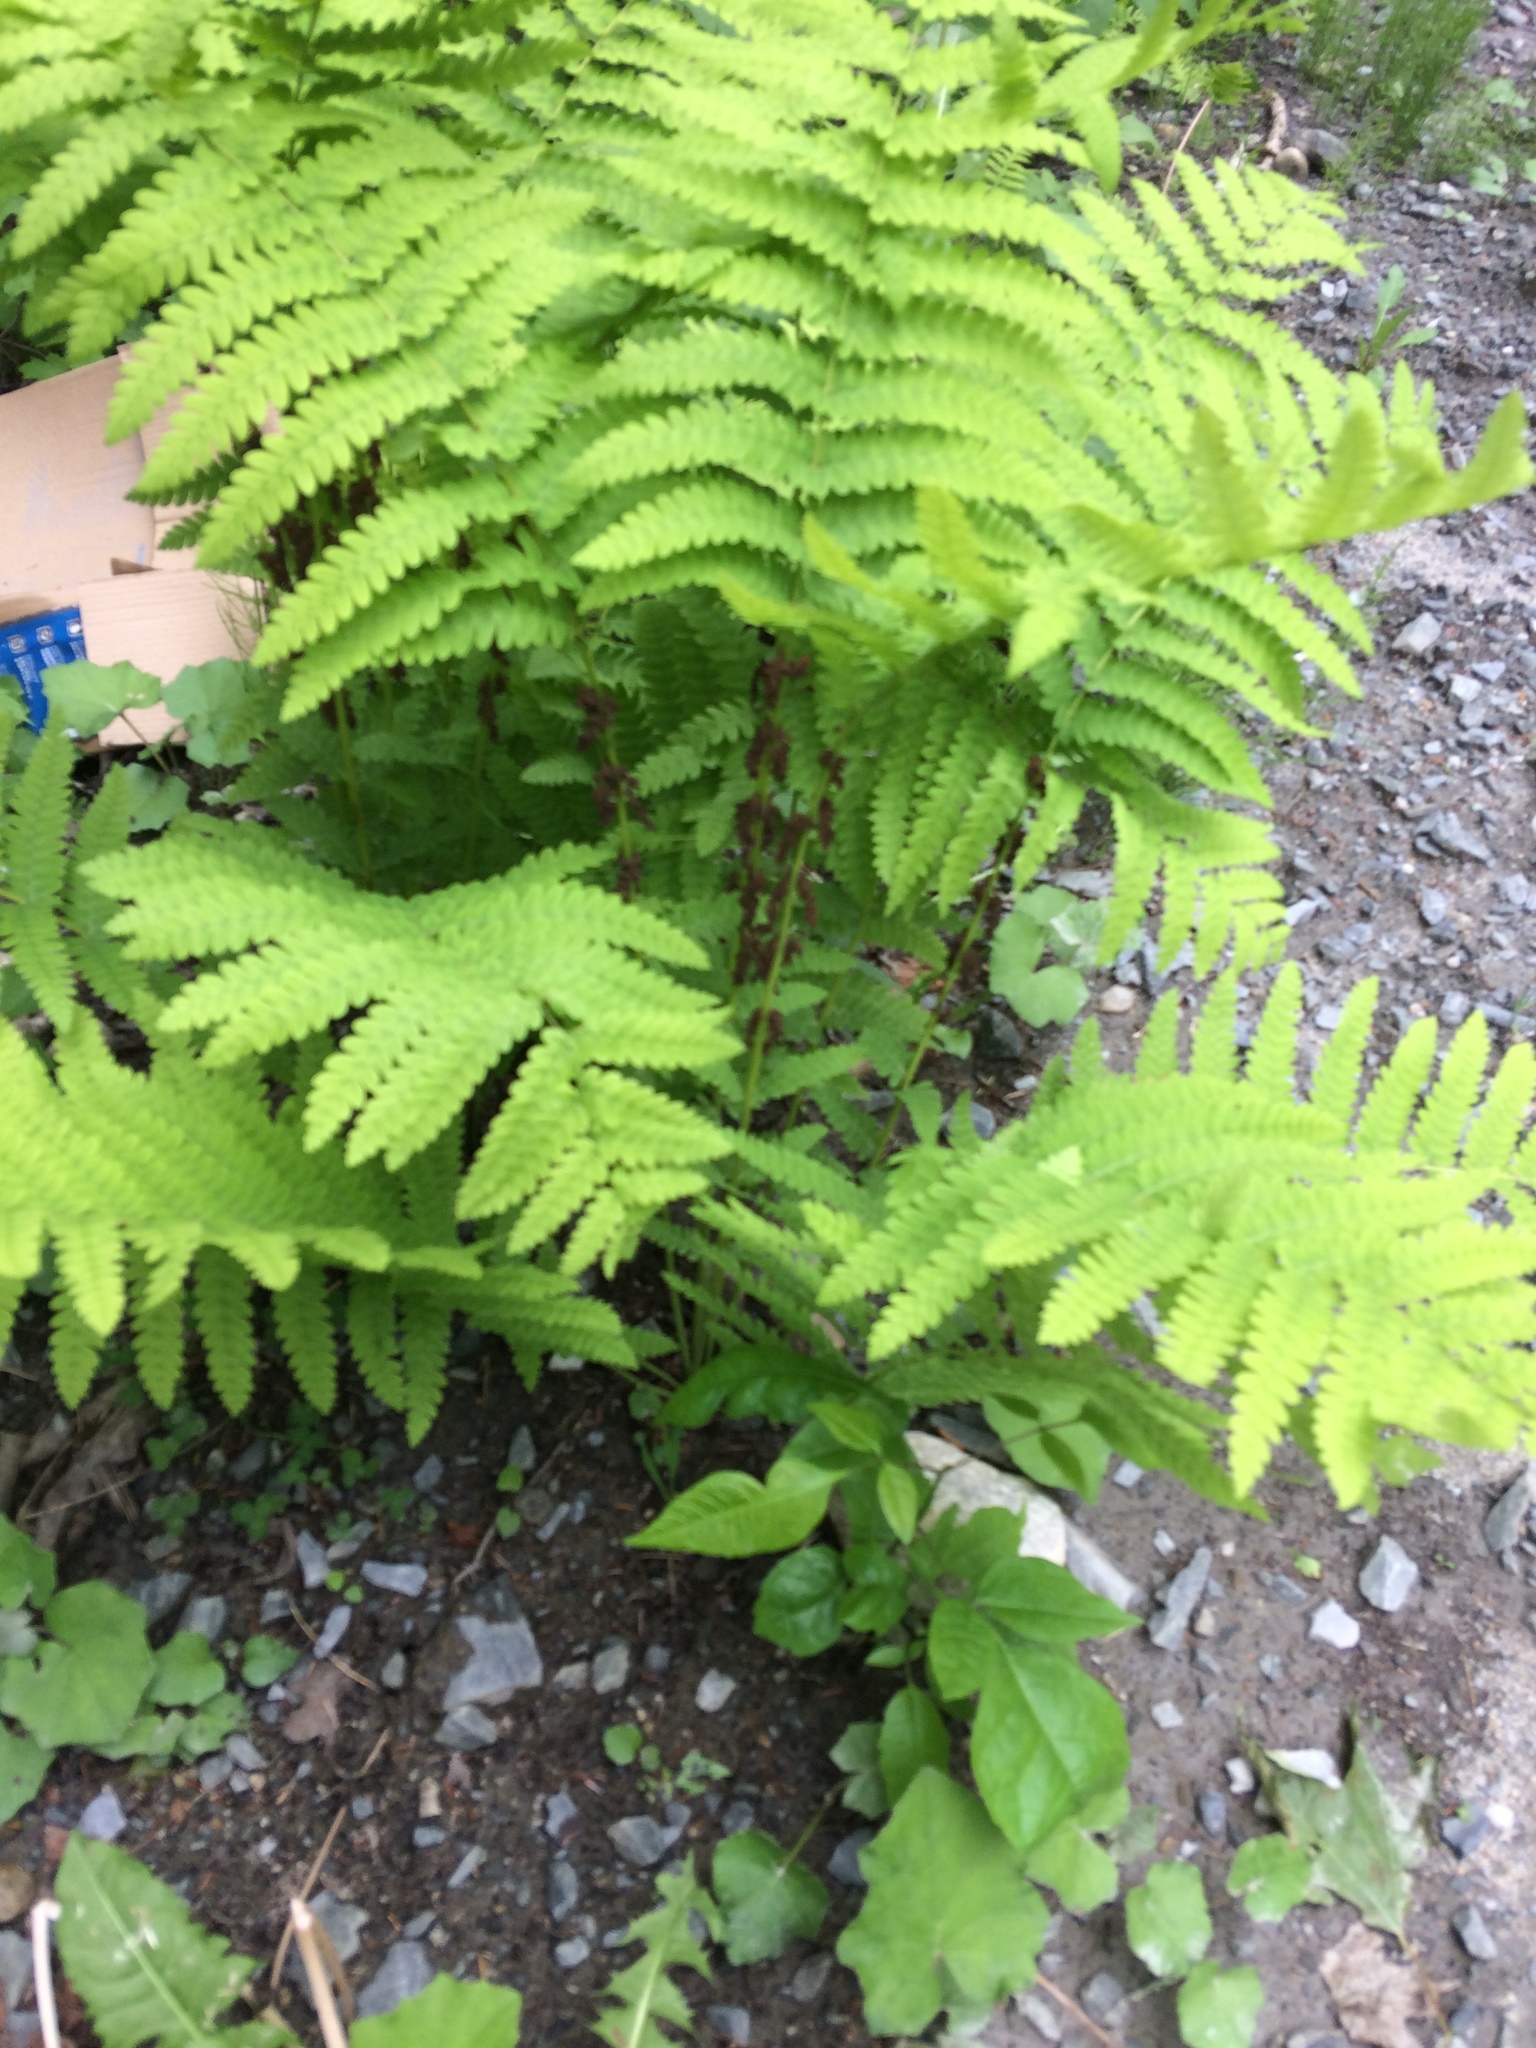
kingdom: Plantae
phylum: Tracheophyta
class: Polypodiopsida
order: Osmundales
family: Osmundaceae
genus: Claytosmunda
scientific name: Claytosmunda claytoniana
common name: Clayton's fern
